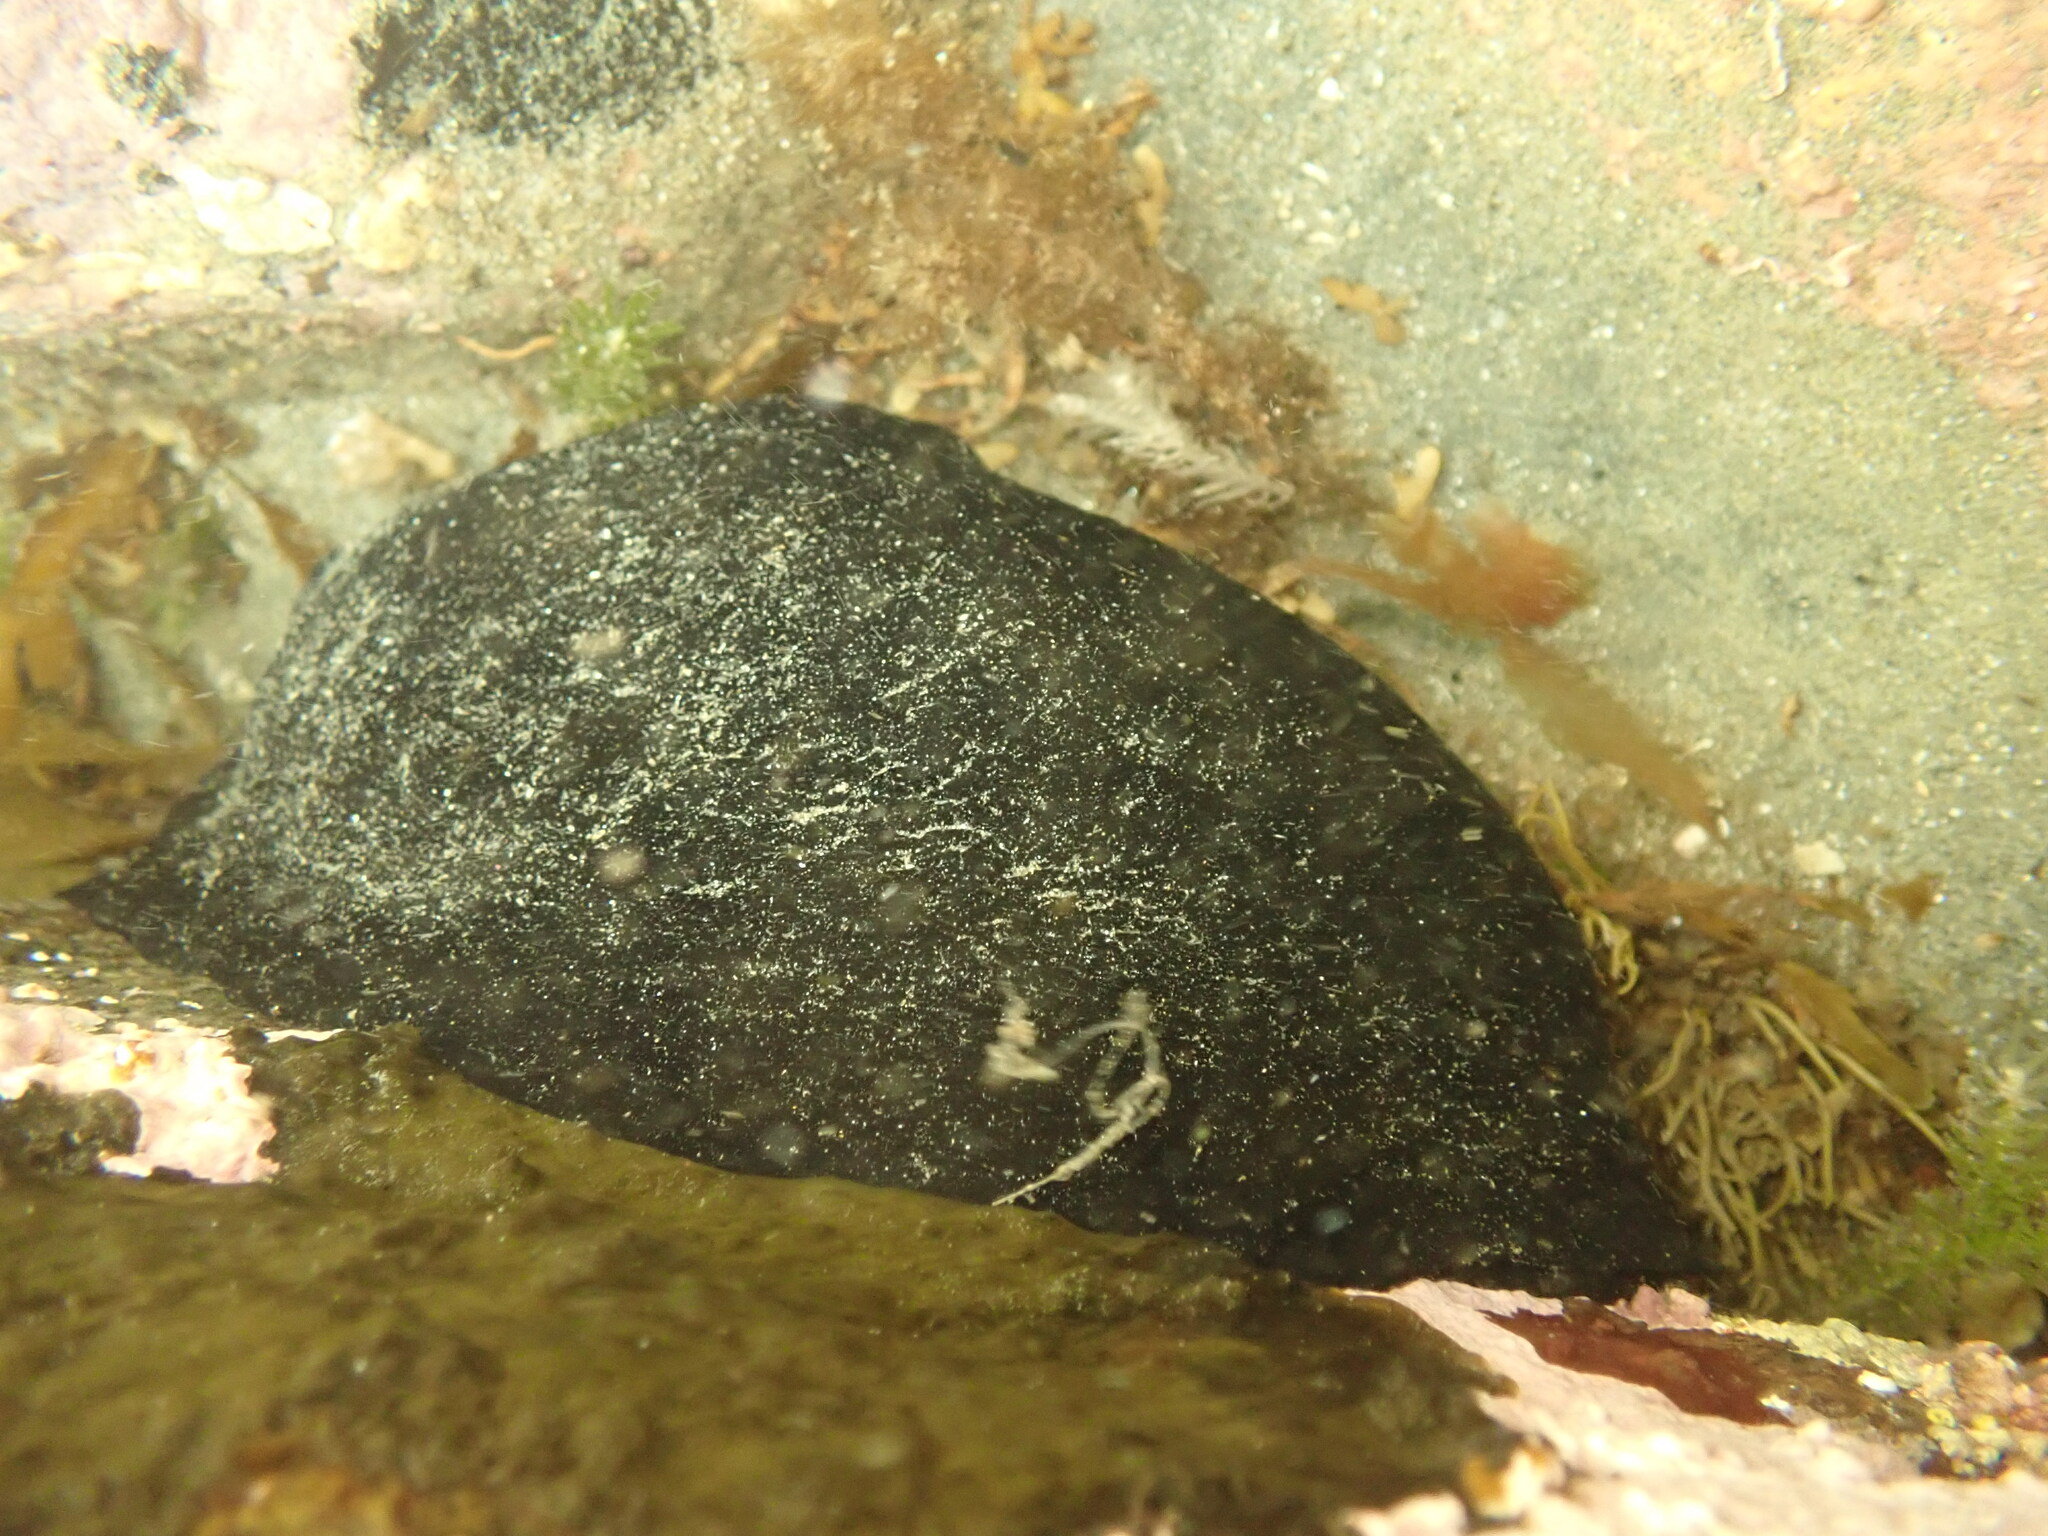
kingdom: Animalia
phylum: Mollusca
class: Gastropoda
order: Lepetellida
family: Fissurellidae
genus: Scutus
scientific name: Scutus breviculus
